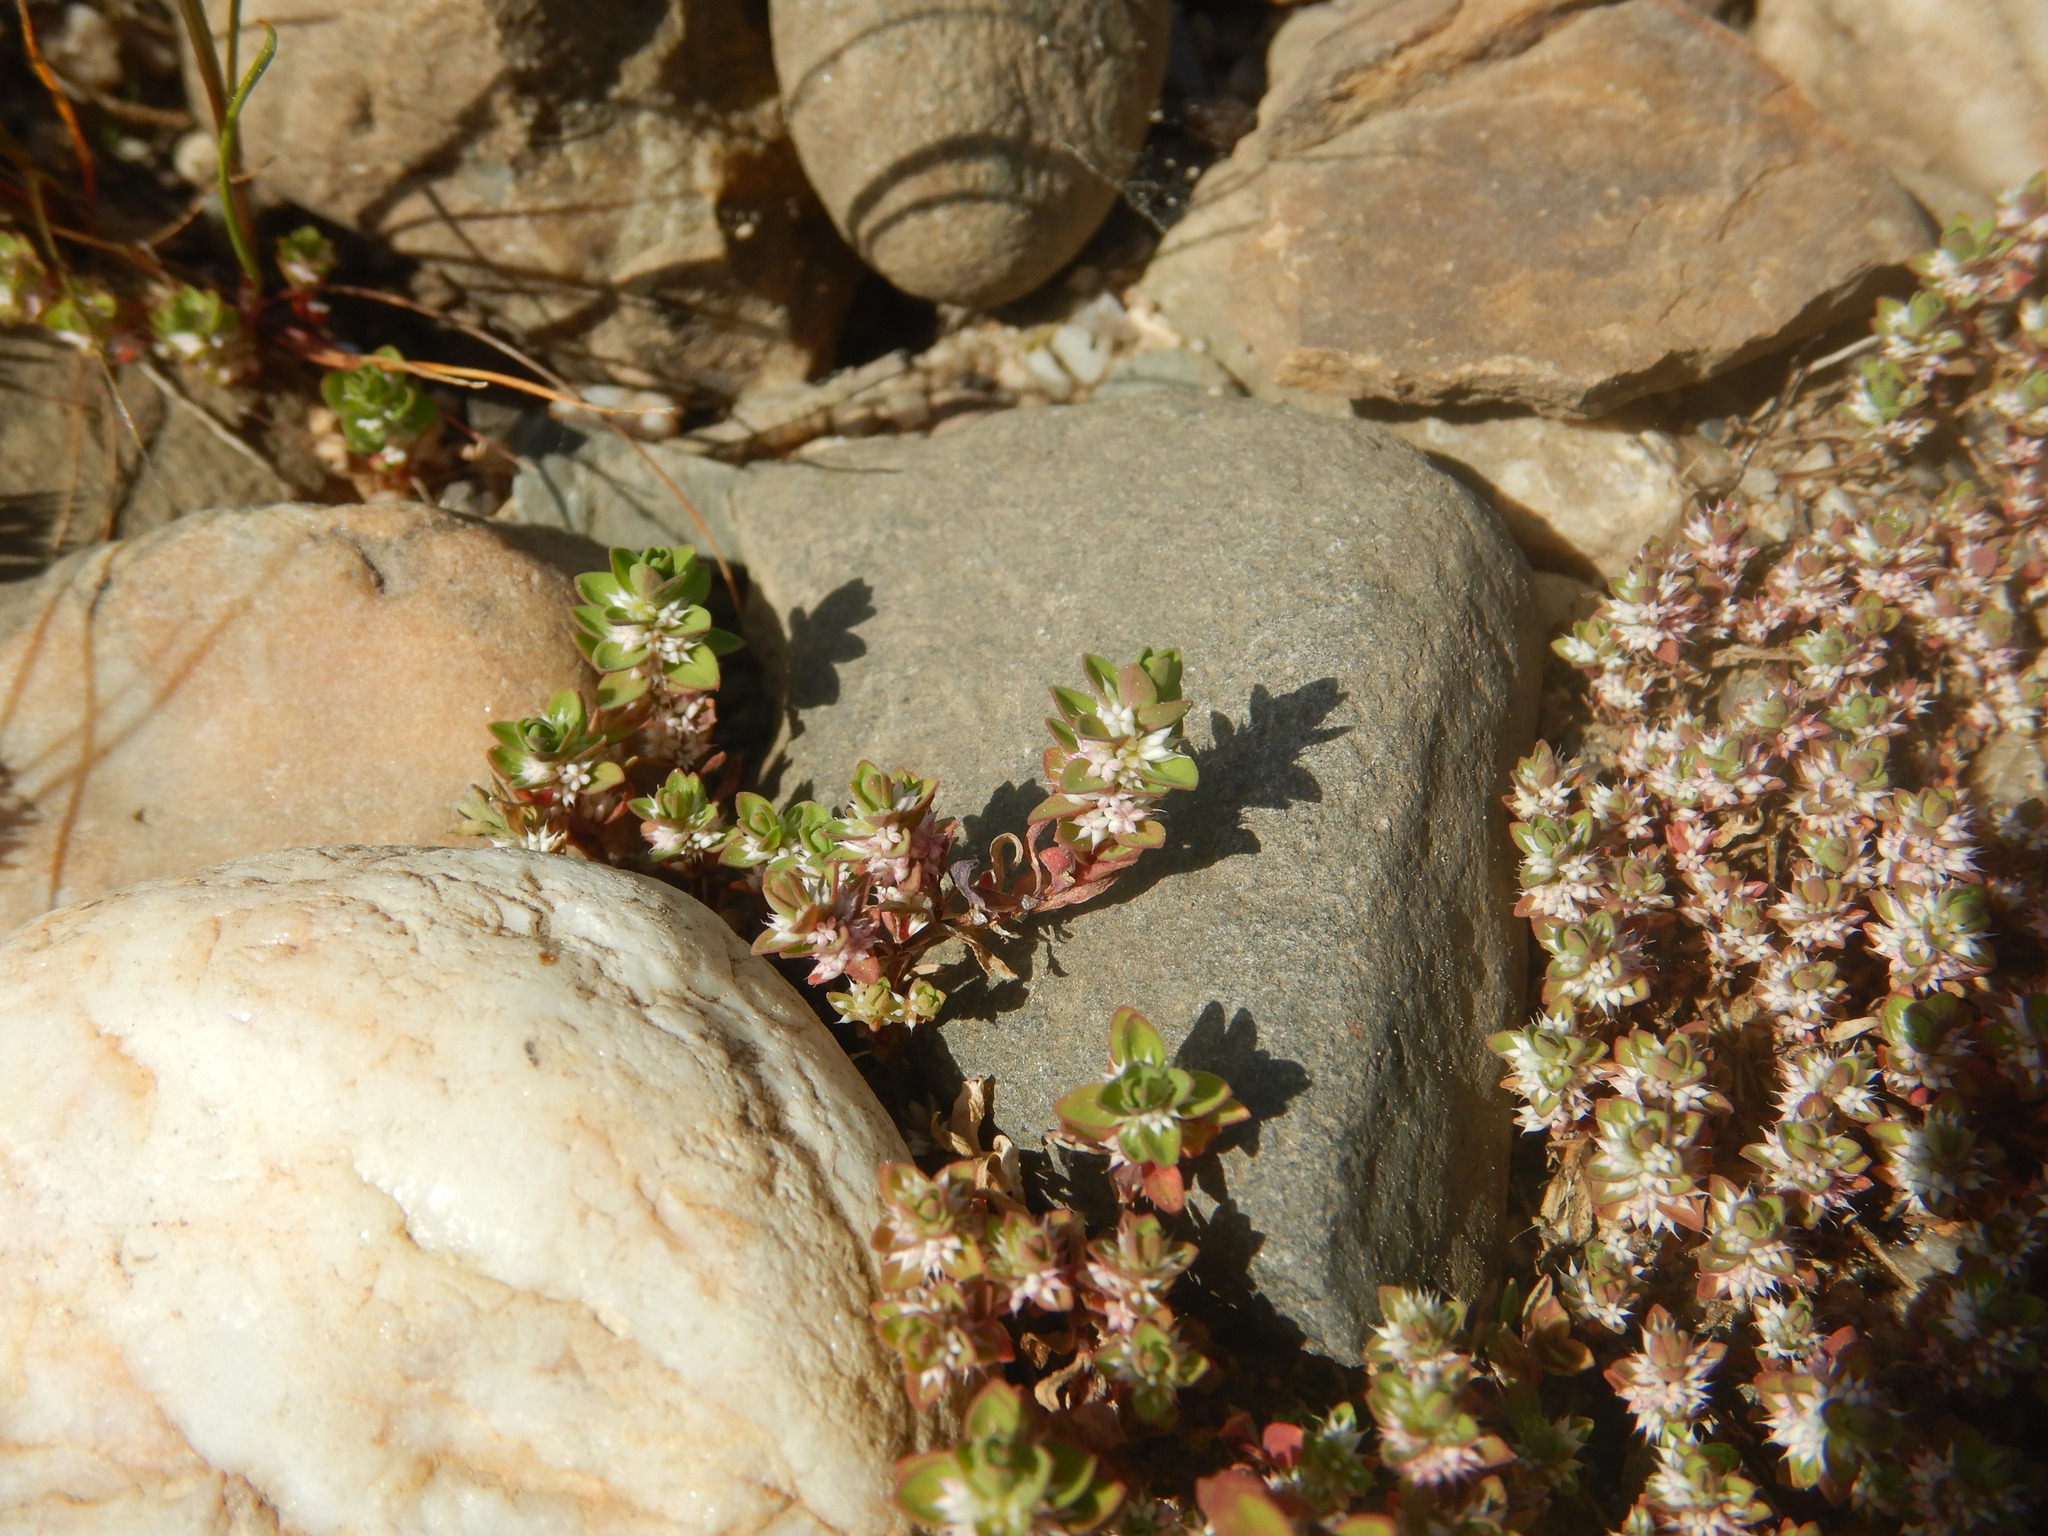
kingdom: Plantae
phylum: Tracheophyta
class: Magnoliopsida
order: Caryophyllales
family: Caryophyllaceae
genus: Illecebrum
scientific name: Illecebrum verticillatum
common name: Coral necklace
